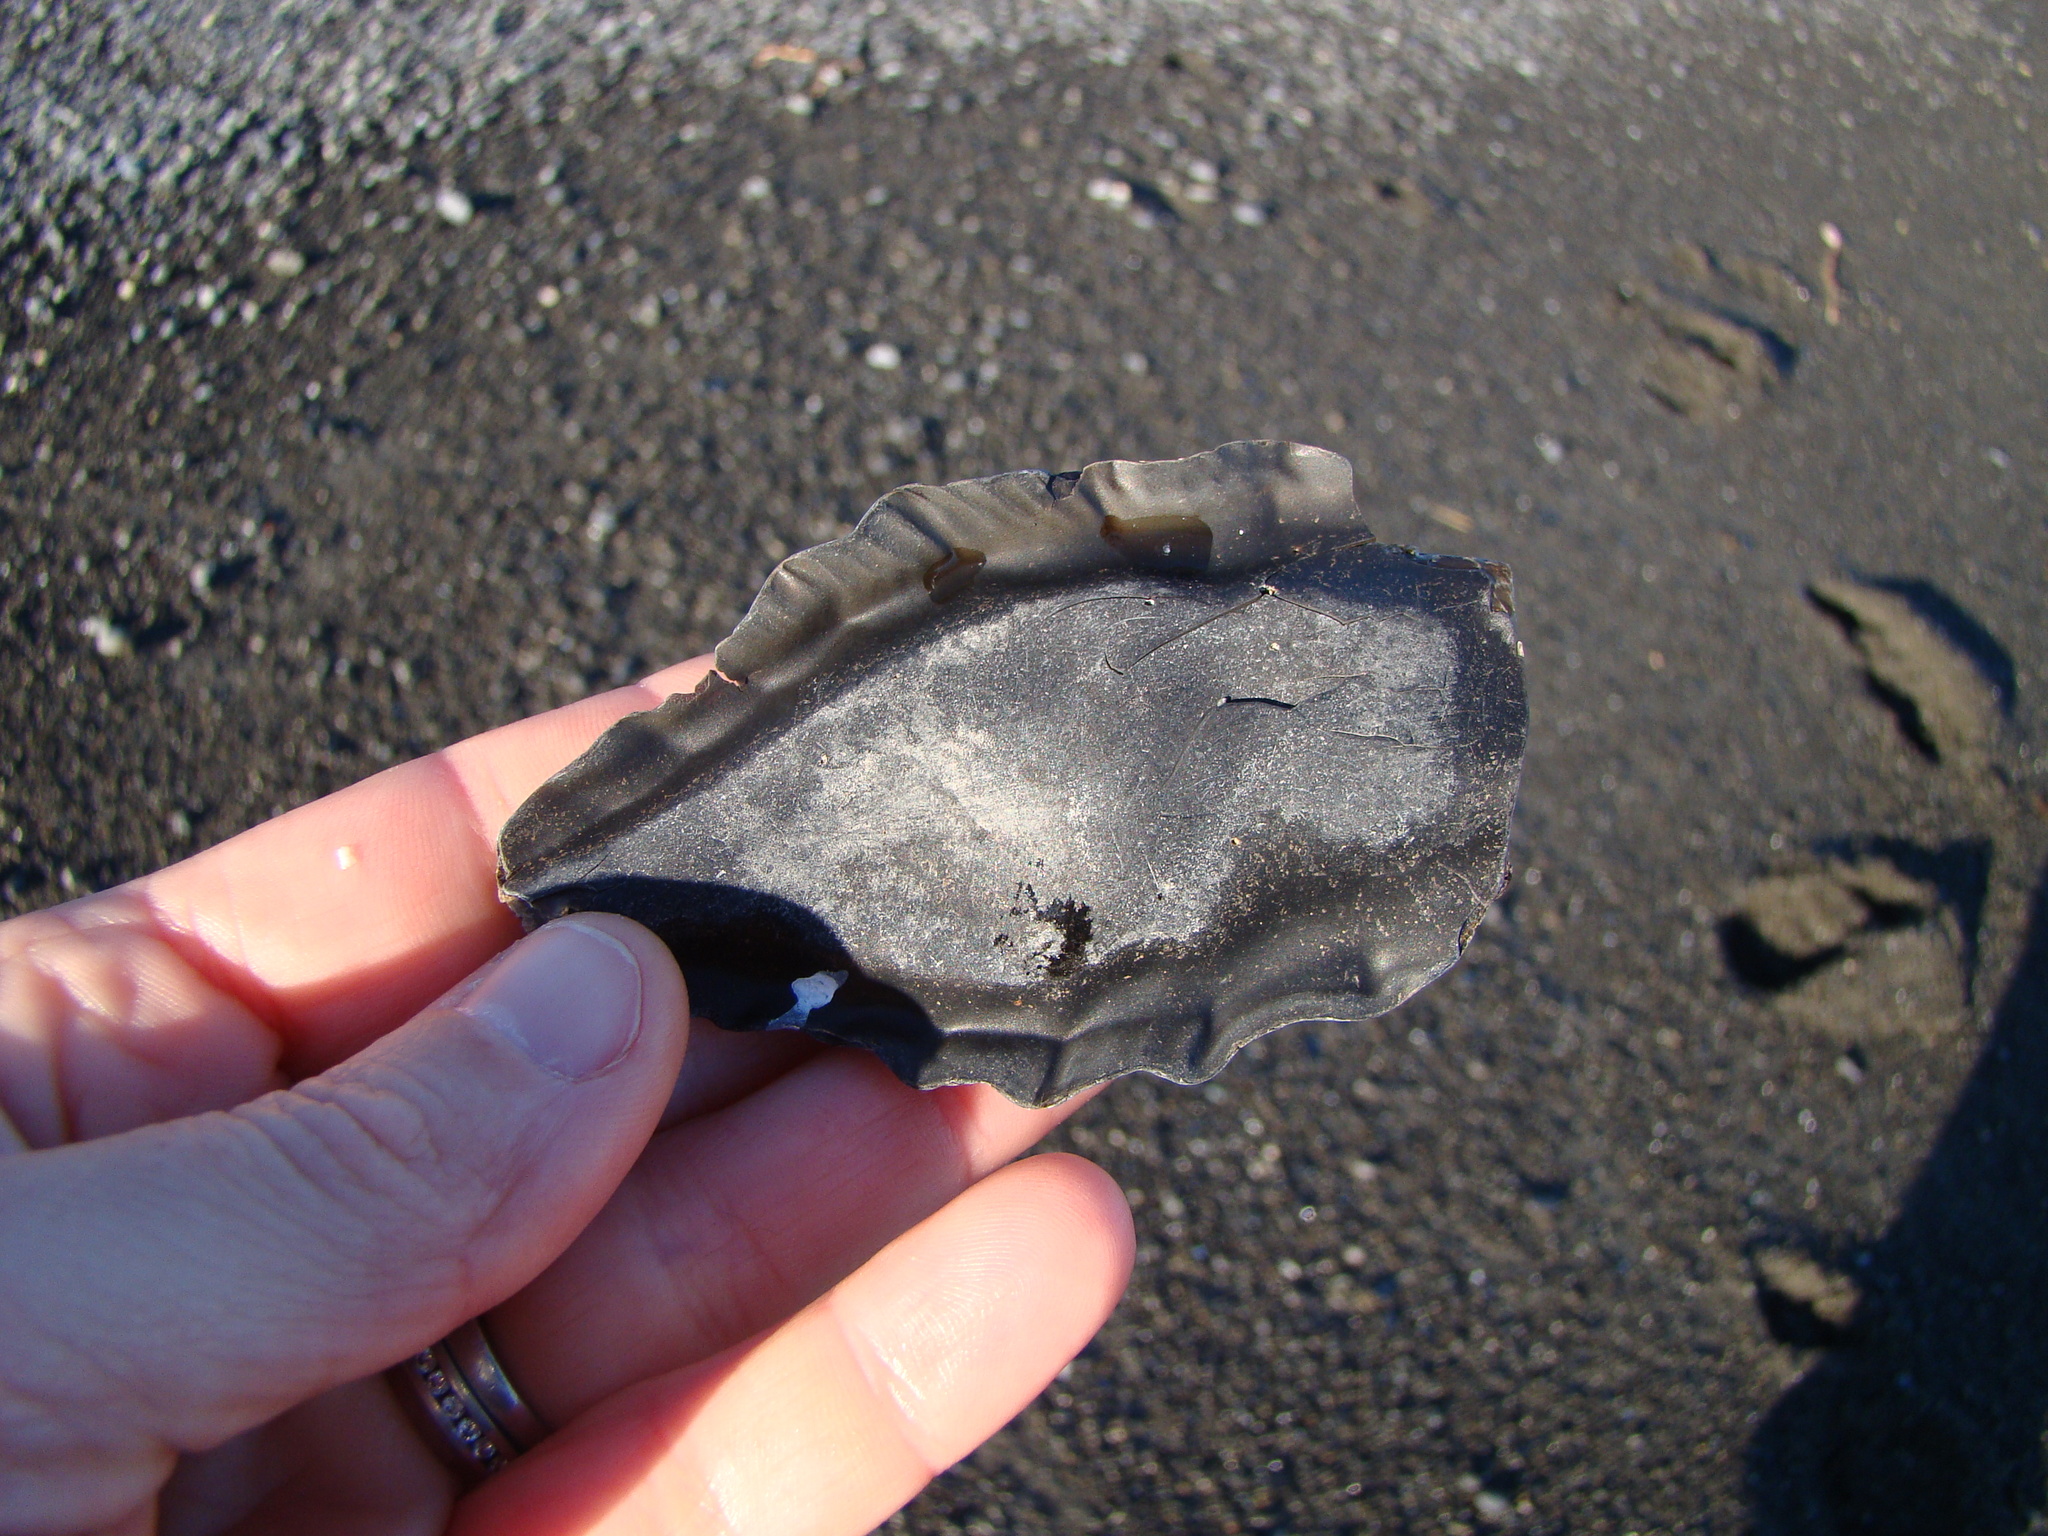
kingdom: Animalia
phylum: Chordata
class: Holocephali
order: Chimaeriformes
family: Callorhinchidae
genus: Callorhinchus
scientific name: Callorhinchus milii
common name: Elephant fish
